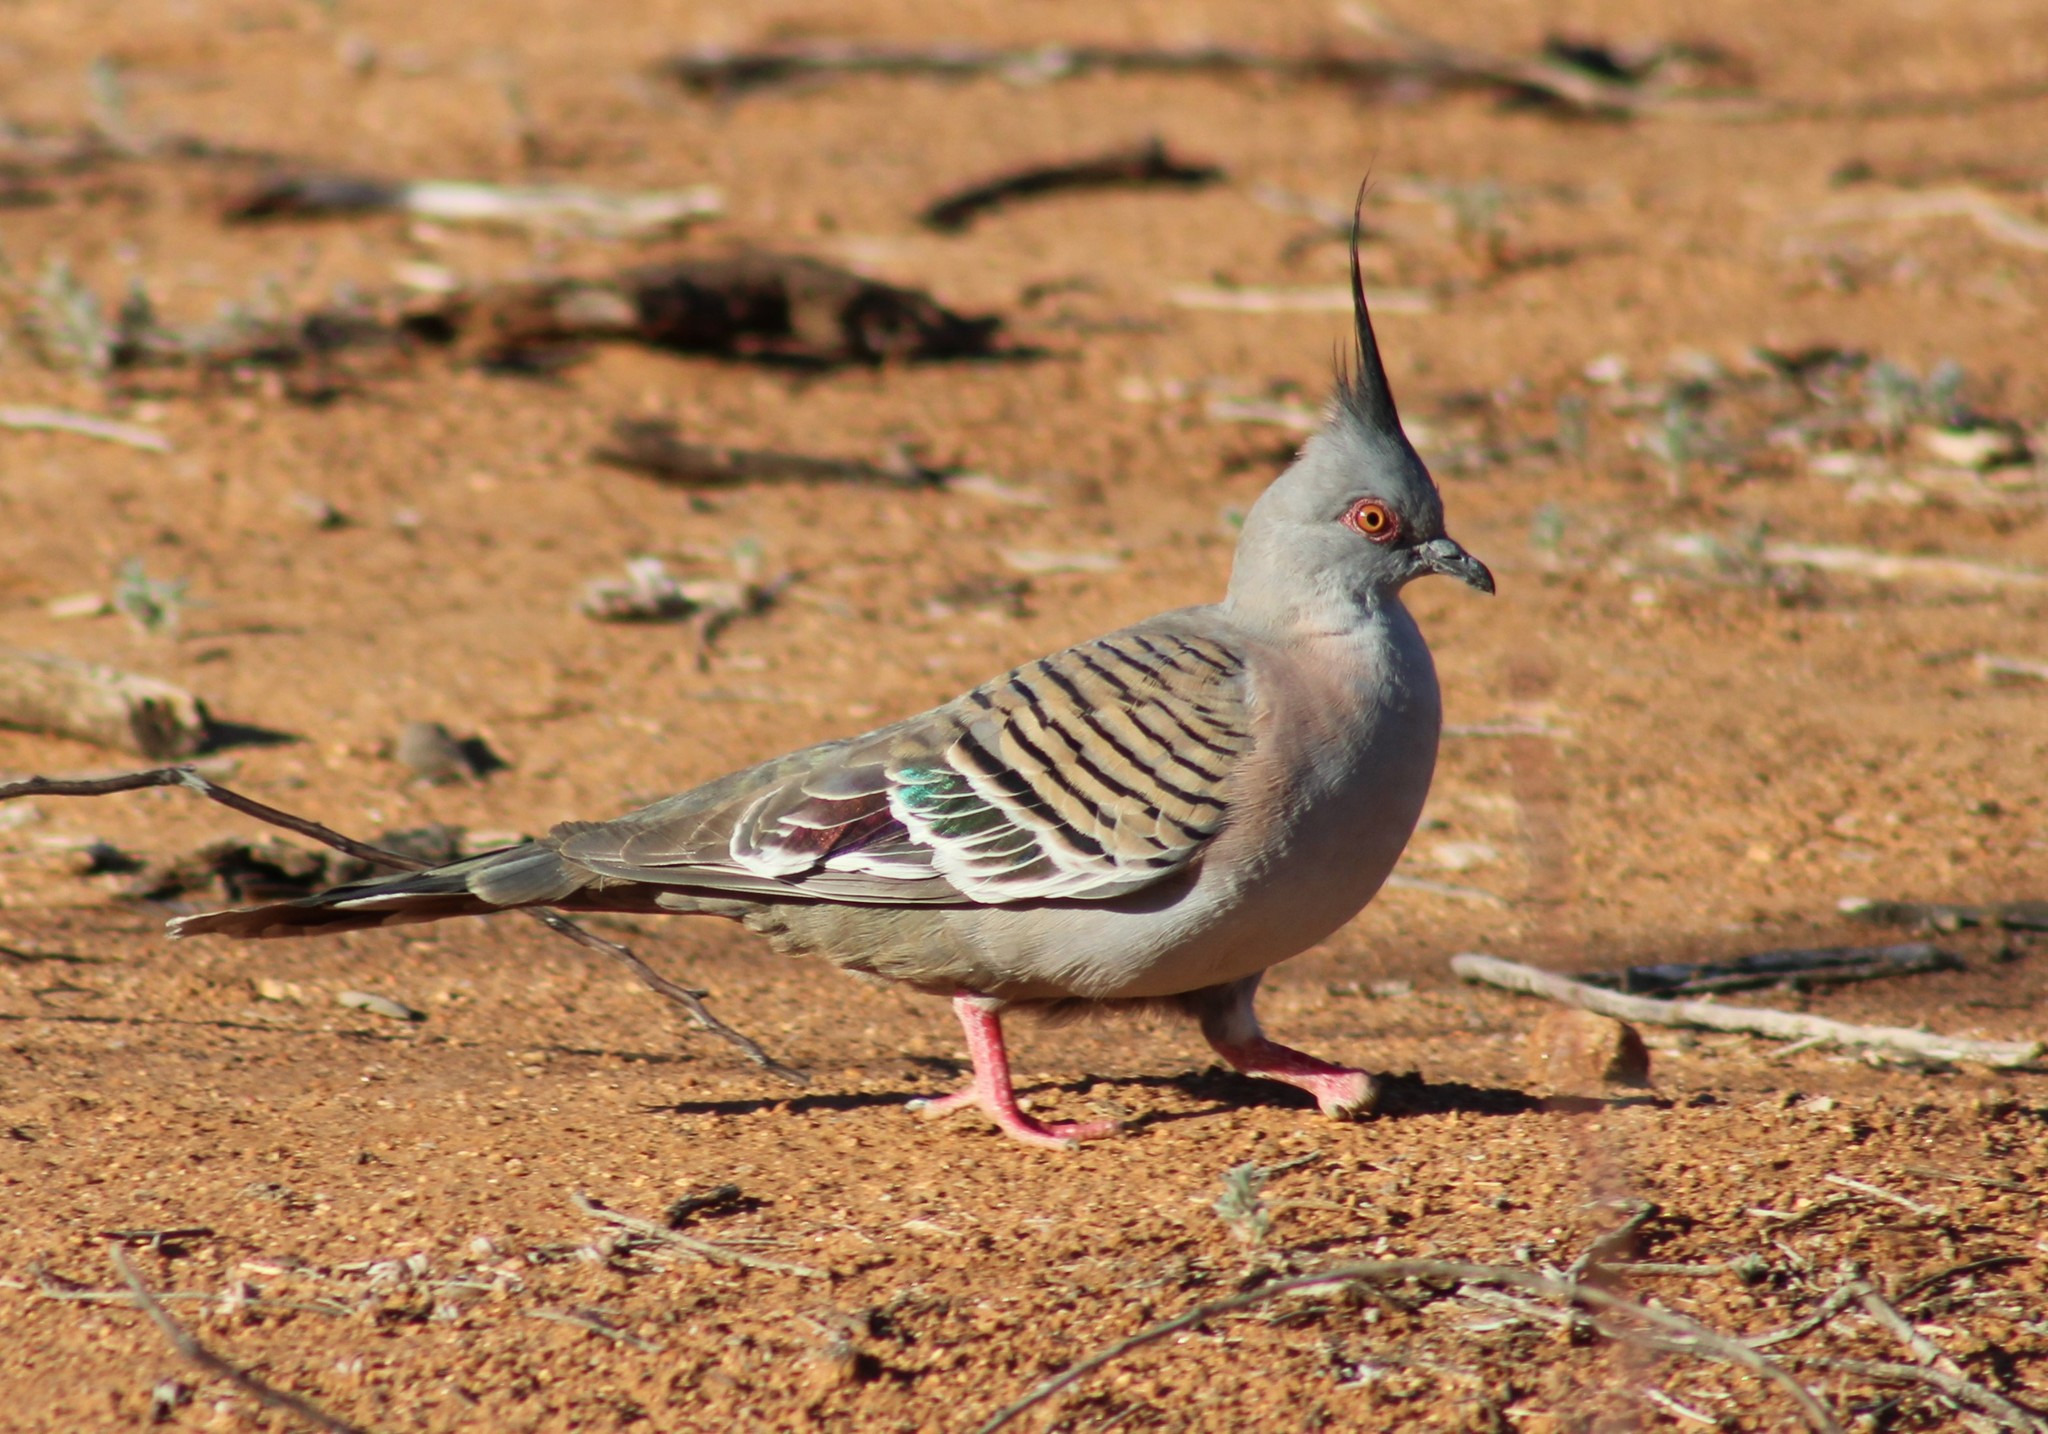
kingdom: Animalia
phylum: Chordata
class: Aves
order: Columbiformes
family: Columbidae
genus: Ocyphaps
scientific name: Ocyphaps lophotes
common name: Crested pigeon
